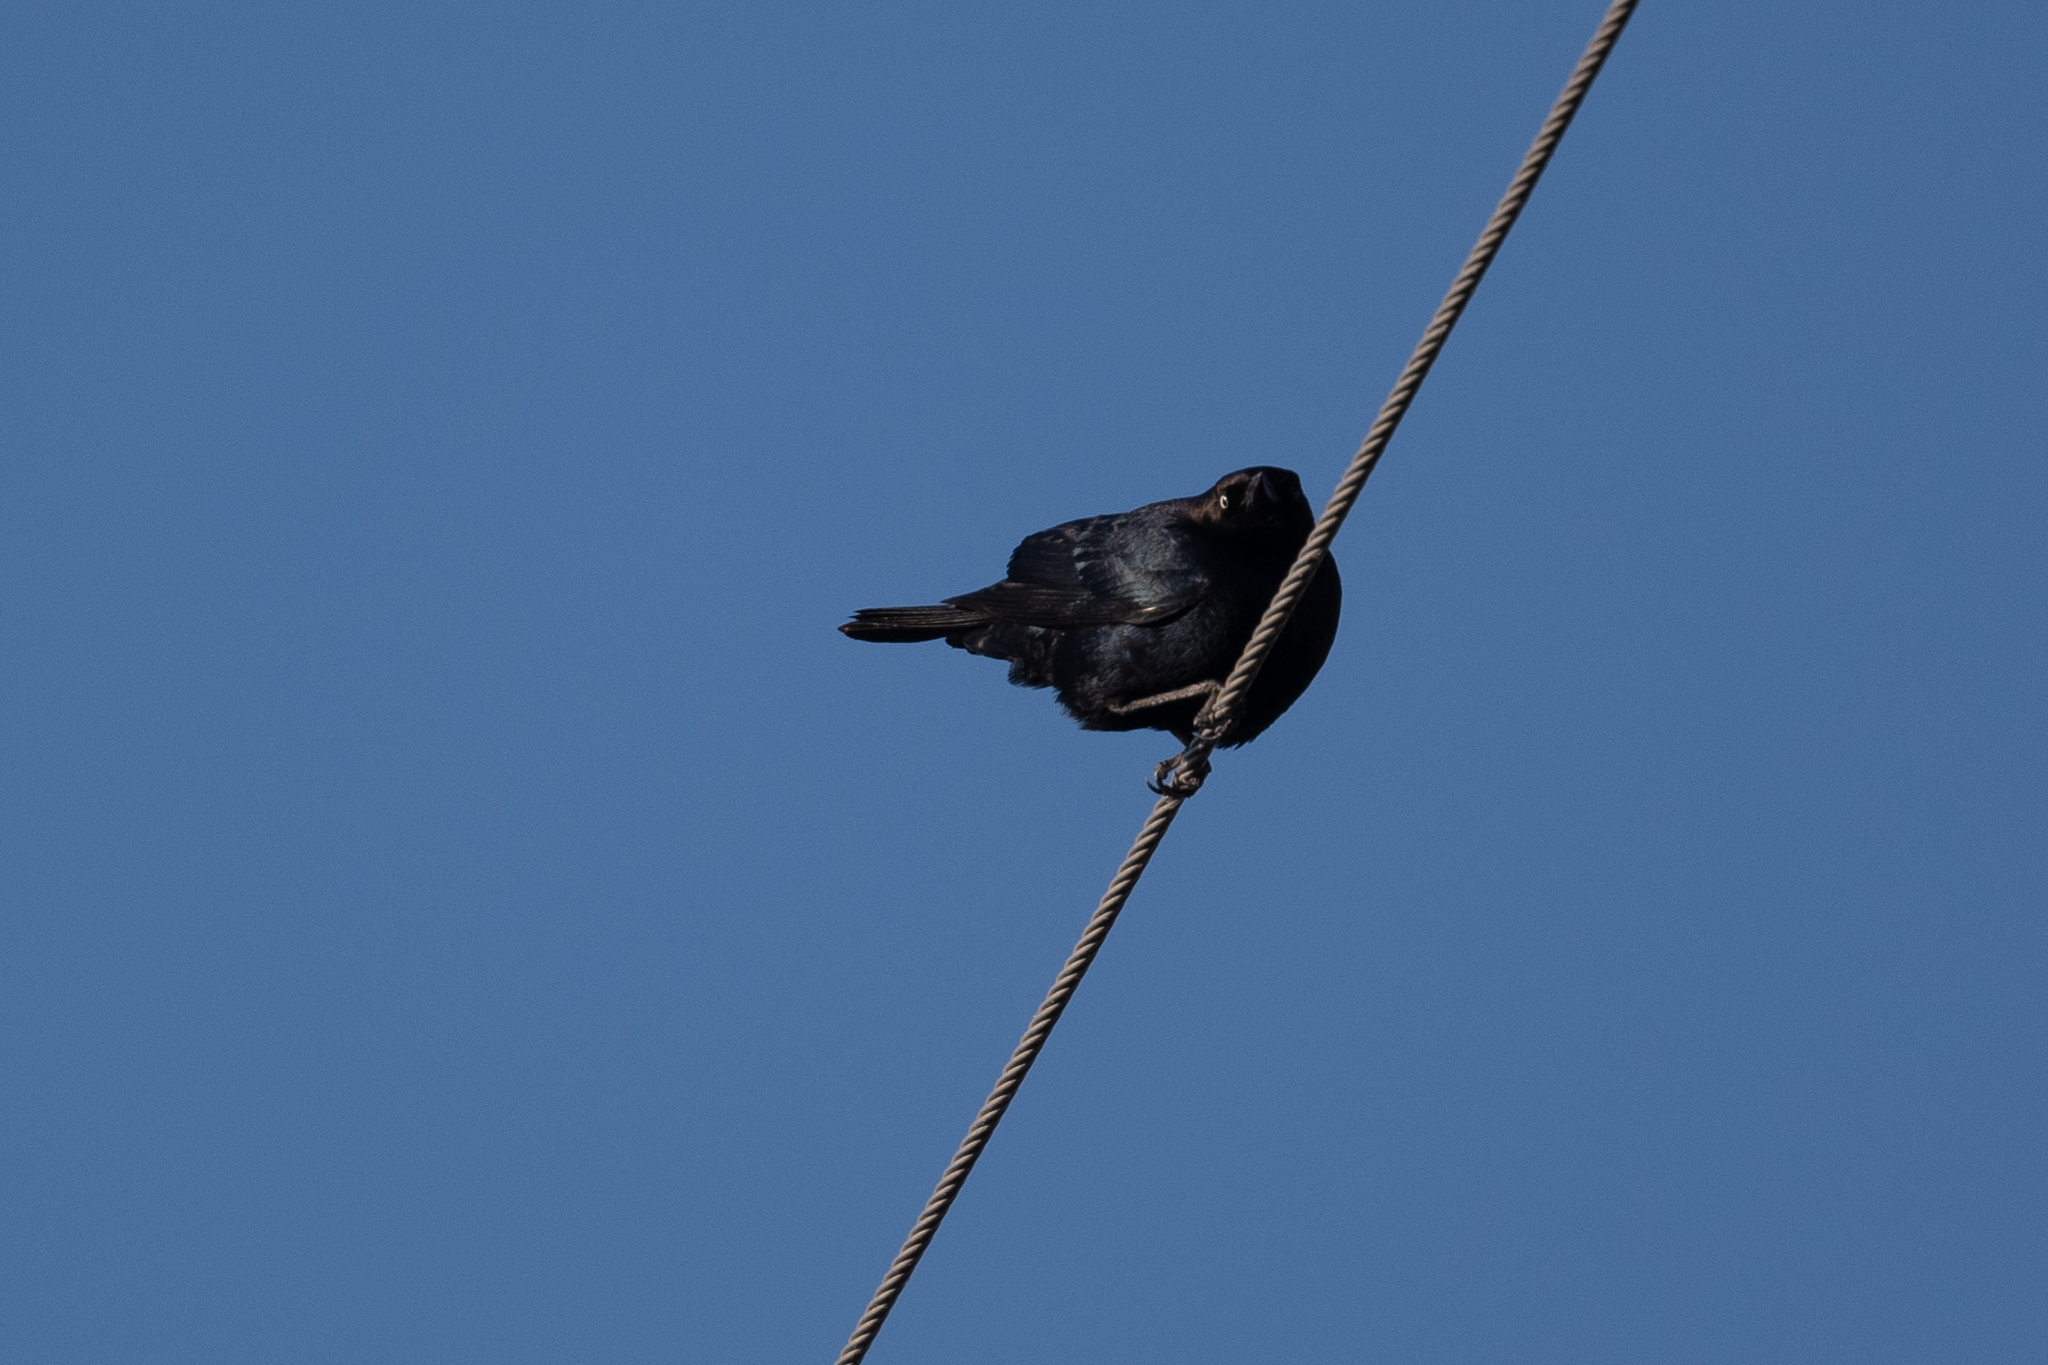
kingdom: Animalia
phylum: Chordata
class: Aves
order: Passeriformes
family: Icteridae
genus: Euphagus
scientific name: Euphagus cyanocephalus
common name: Brewer's blackbird
